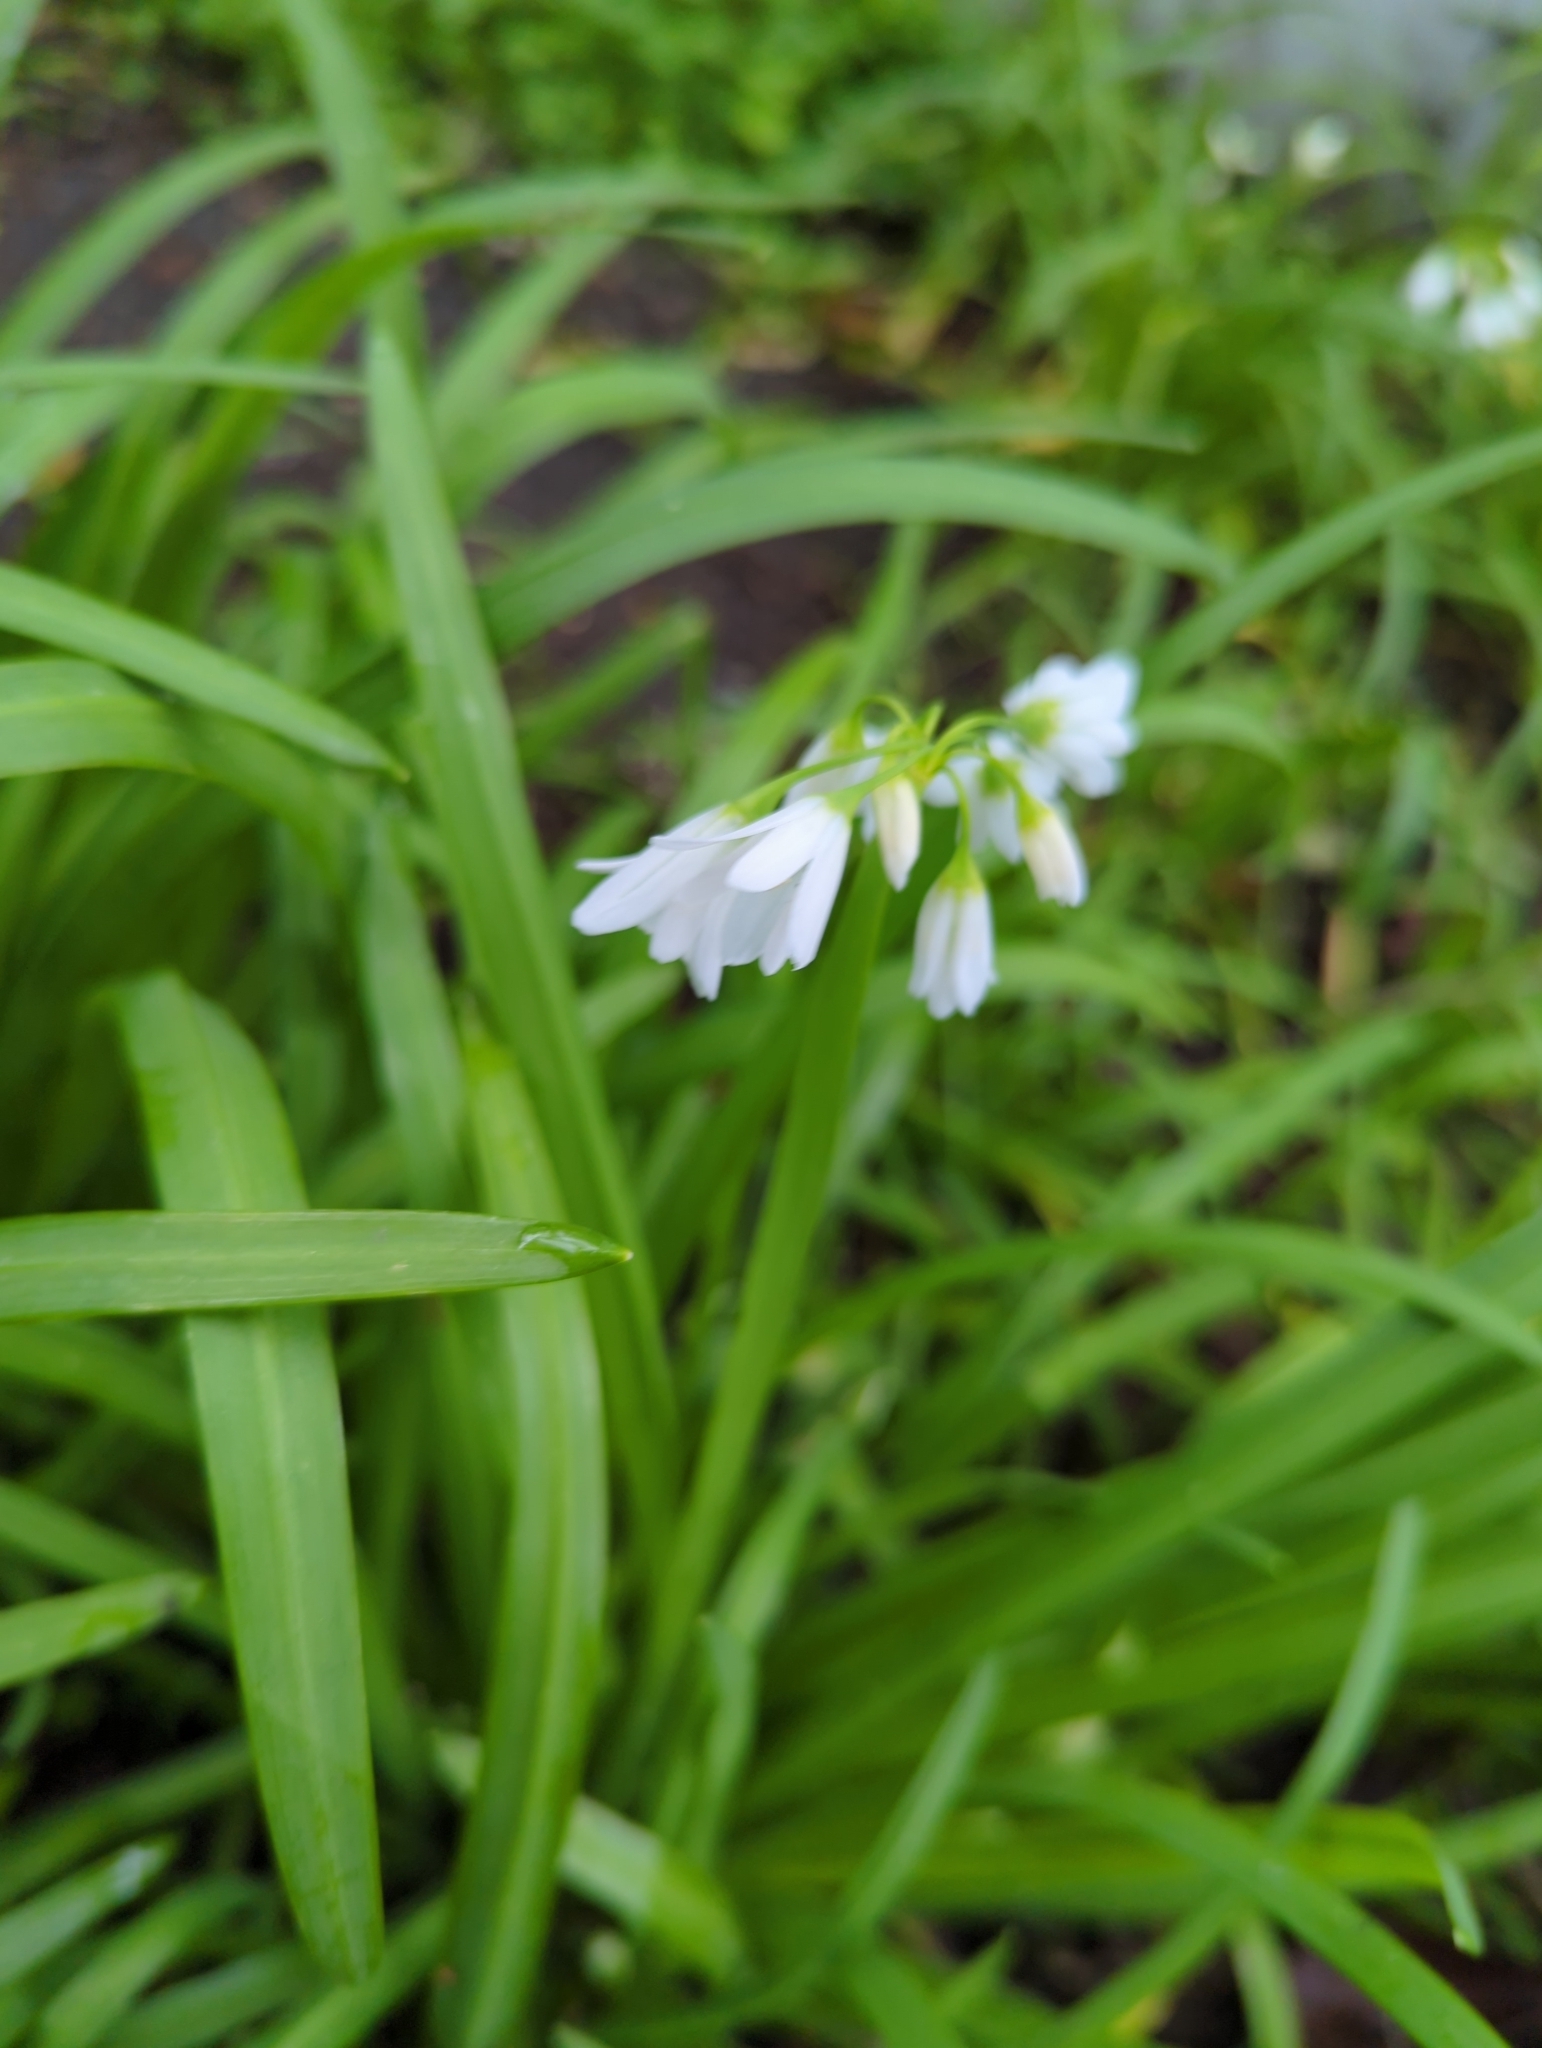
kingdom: Plantae
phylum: Tracheophyta
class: Liliopsida
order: Asparagales
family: Amaryllidaceae
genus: Allium
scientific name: Allium triquetrum
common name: Three-cornered garlic
